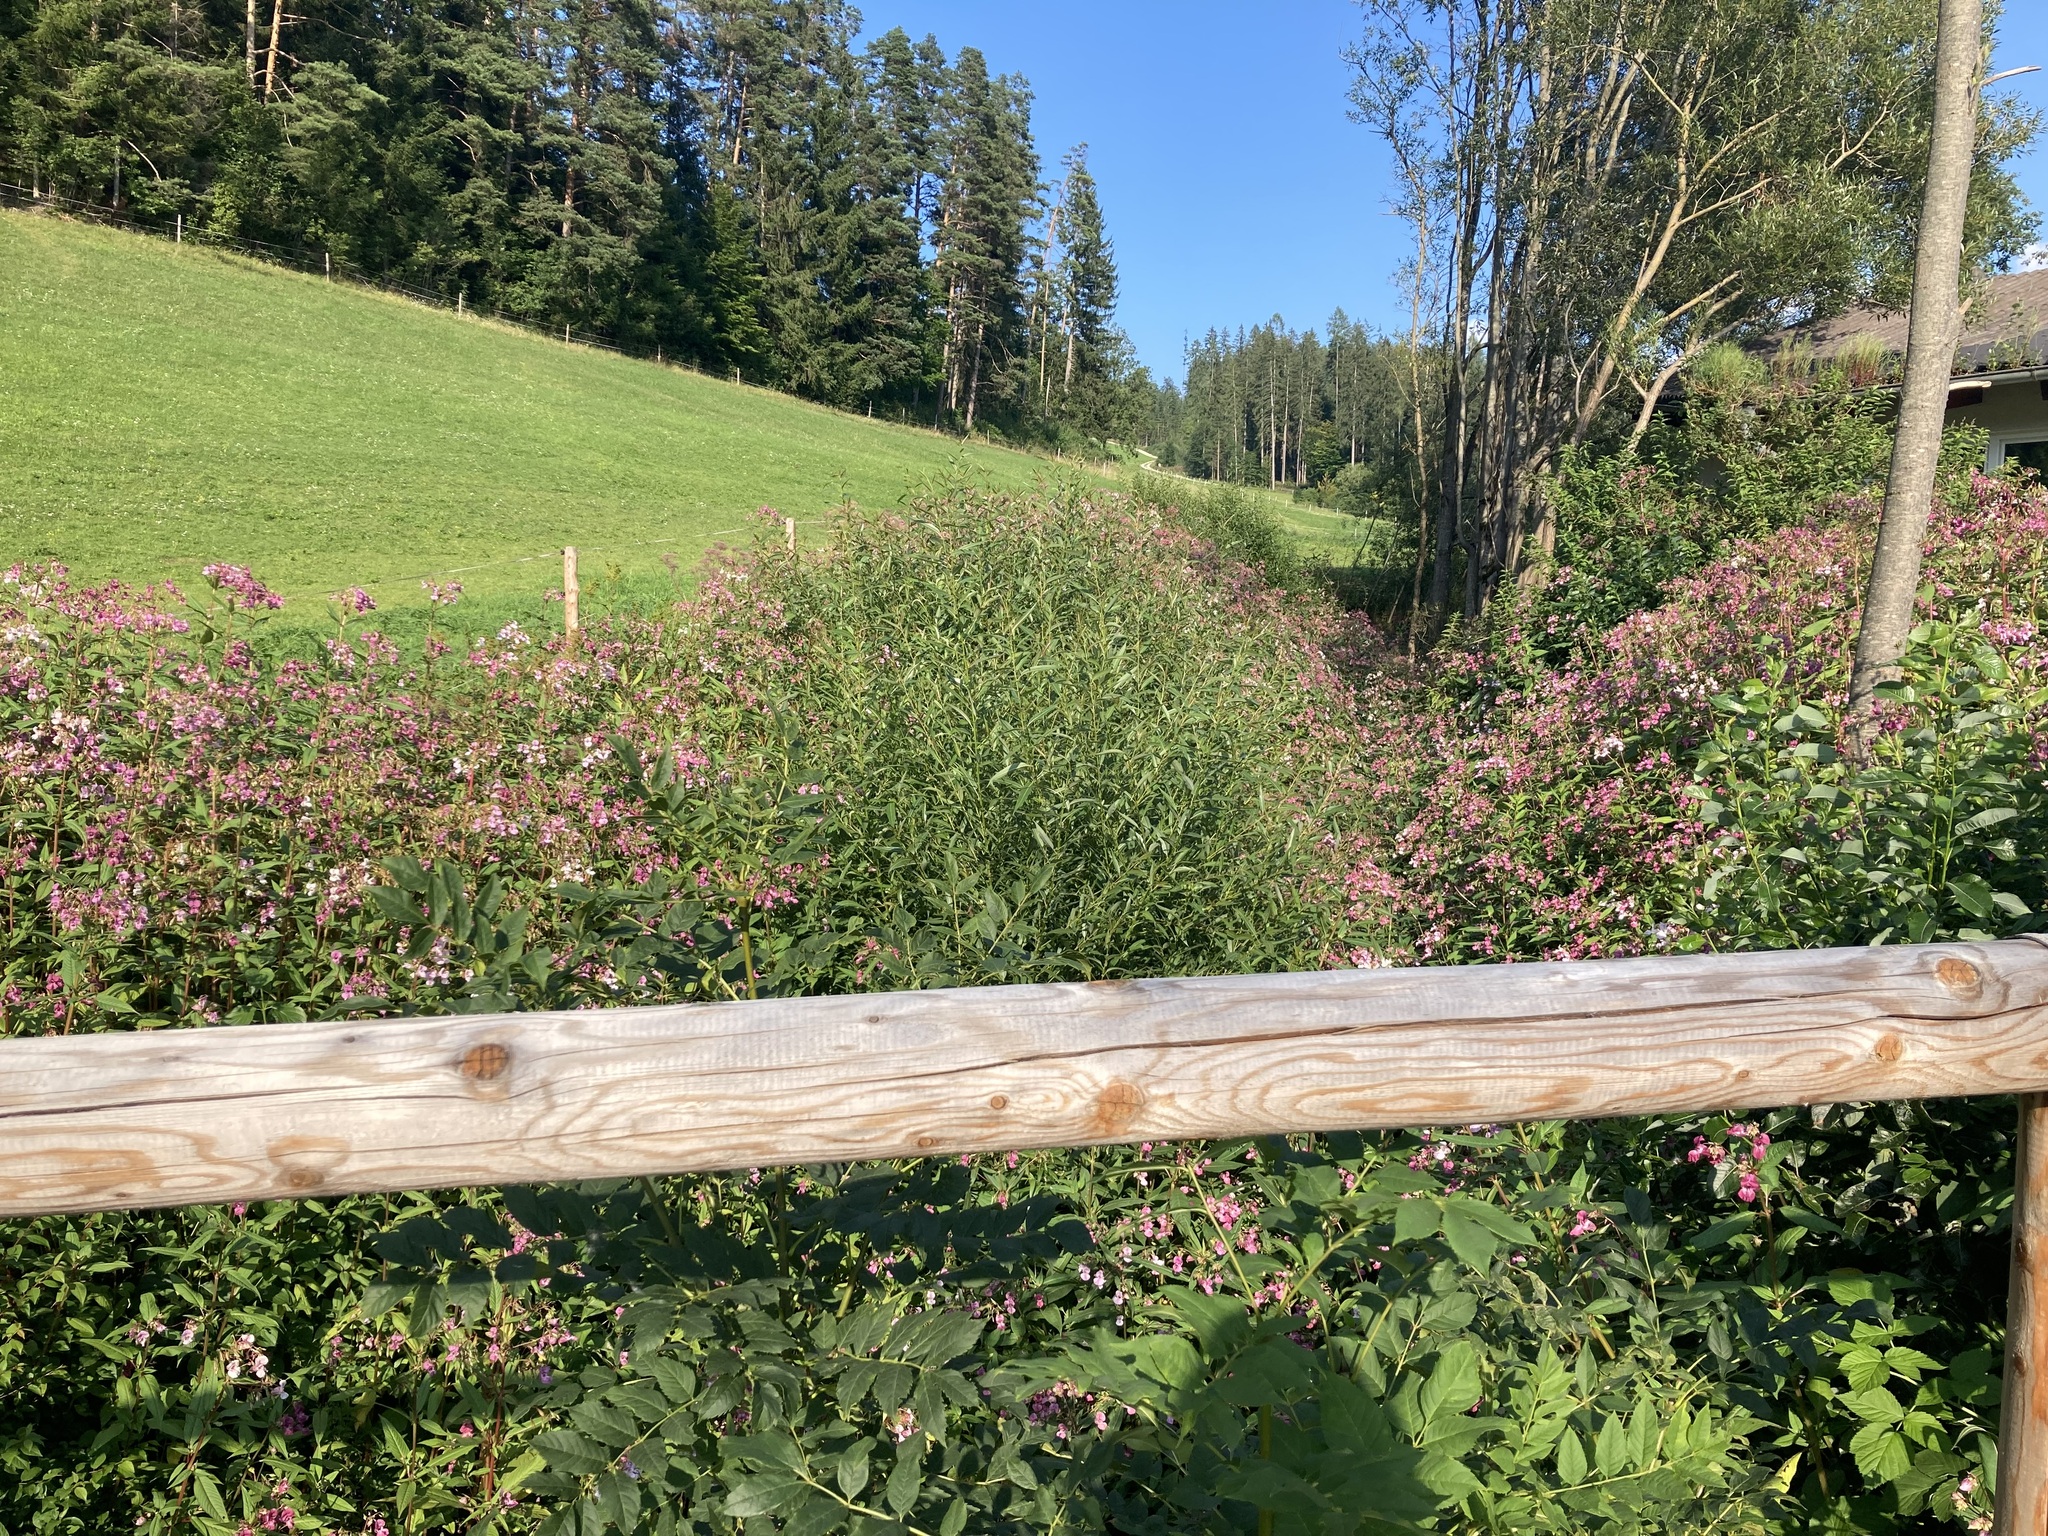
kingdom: Plantae
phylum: Tracheophyta
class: Magnoliopsida
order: Ericales
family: Balsaminaceae
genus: Impatiens
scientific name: Impatiens glandulifera
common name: Himalayan balsam
